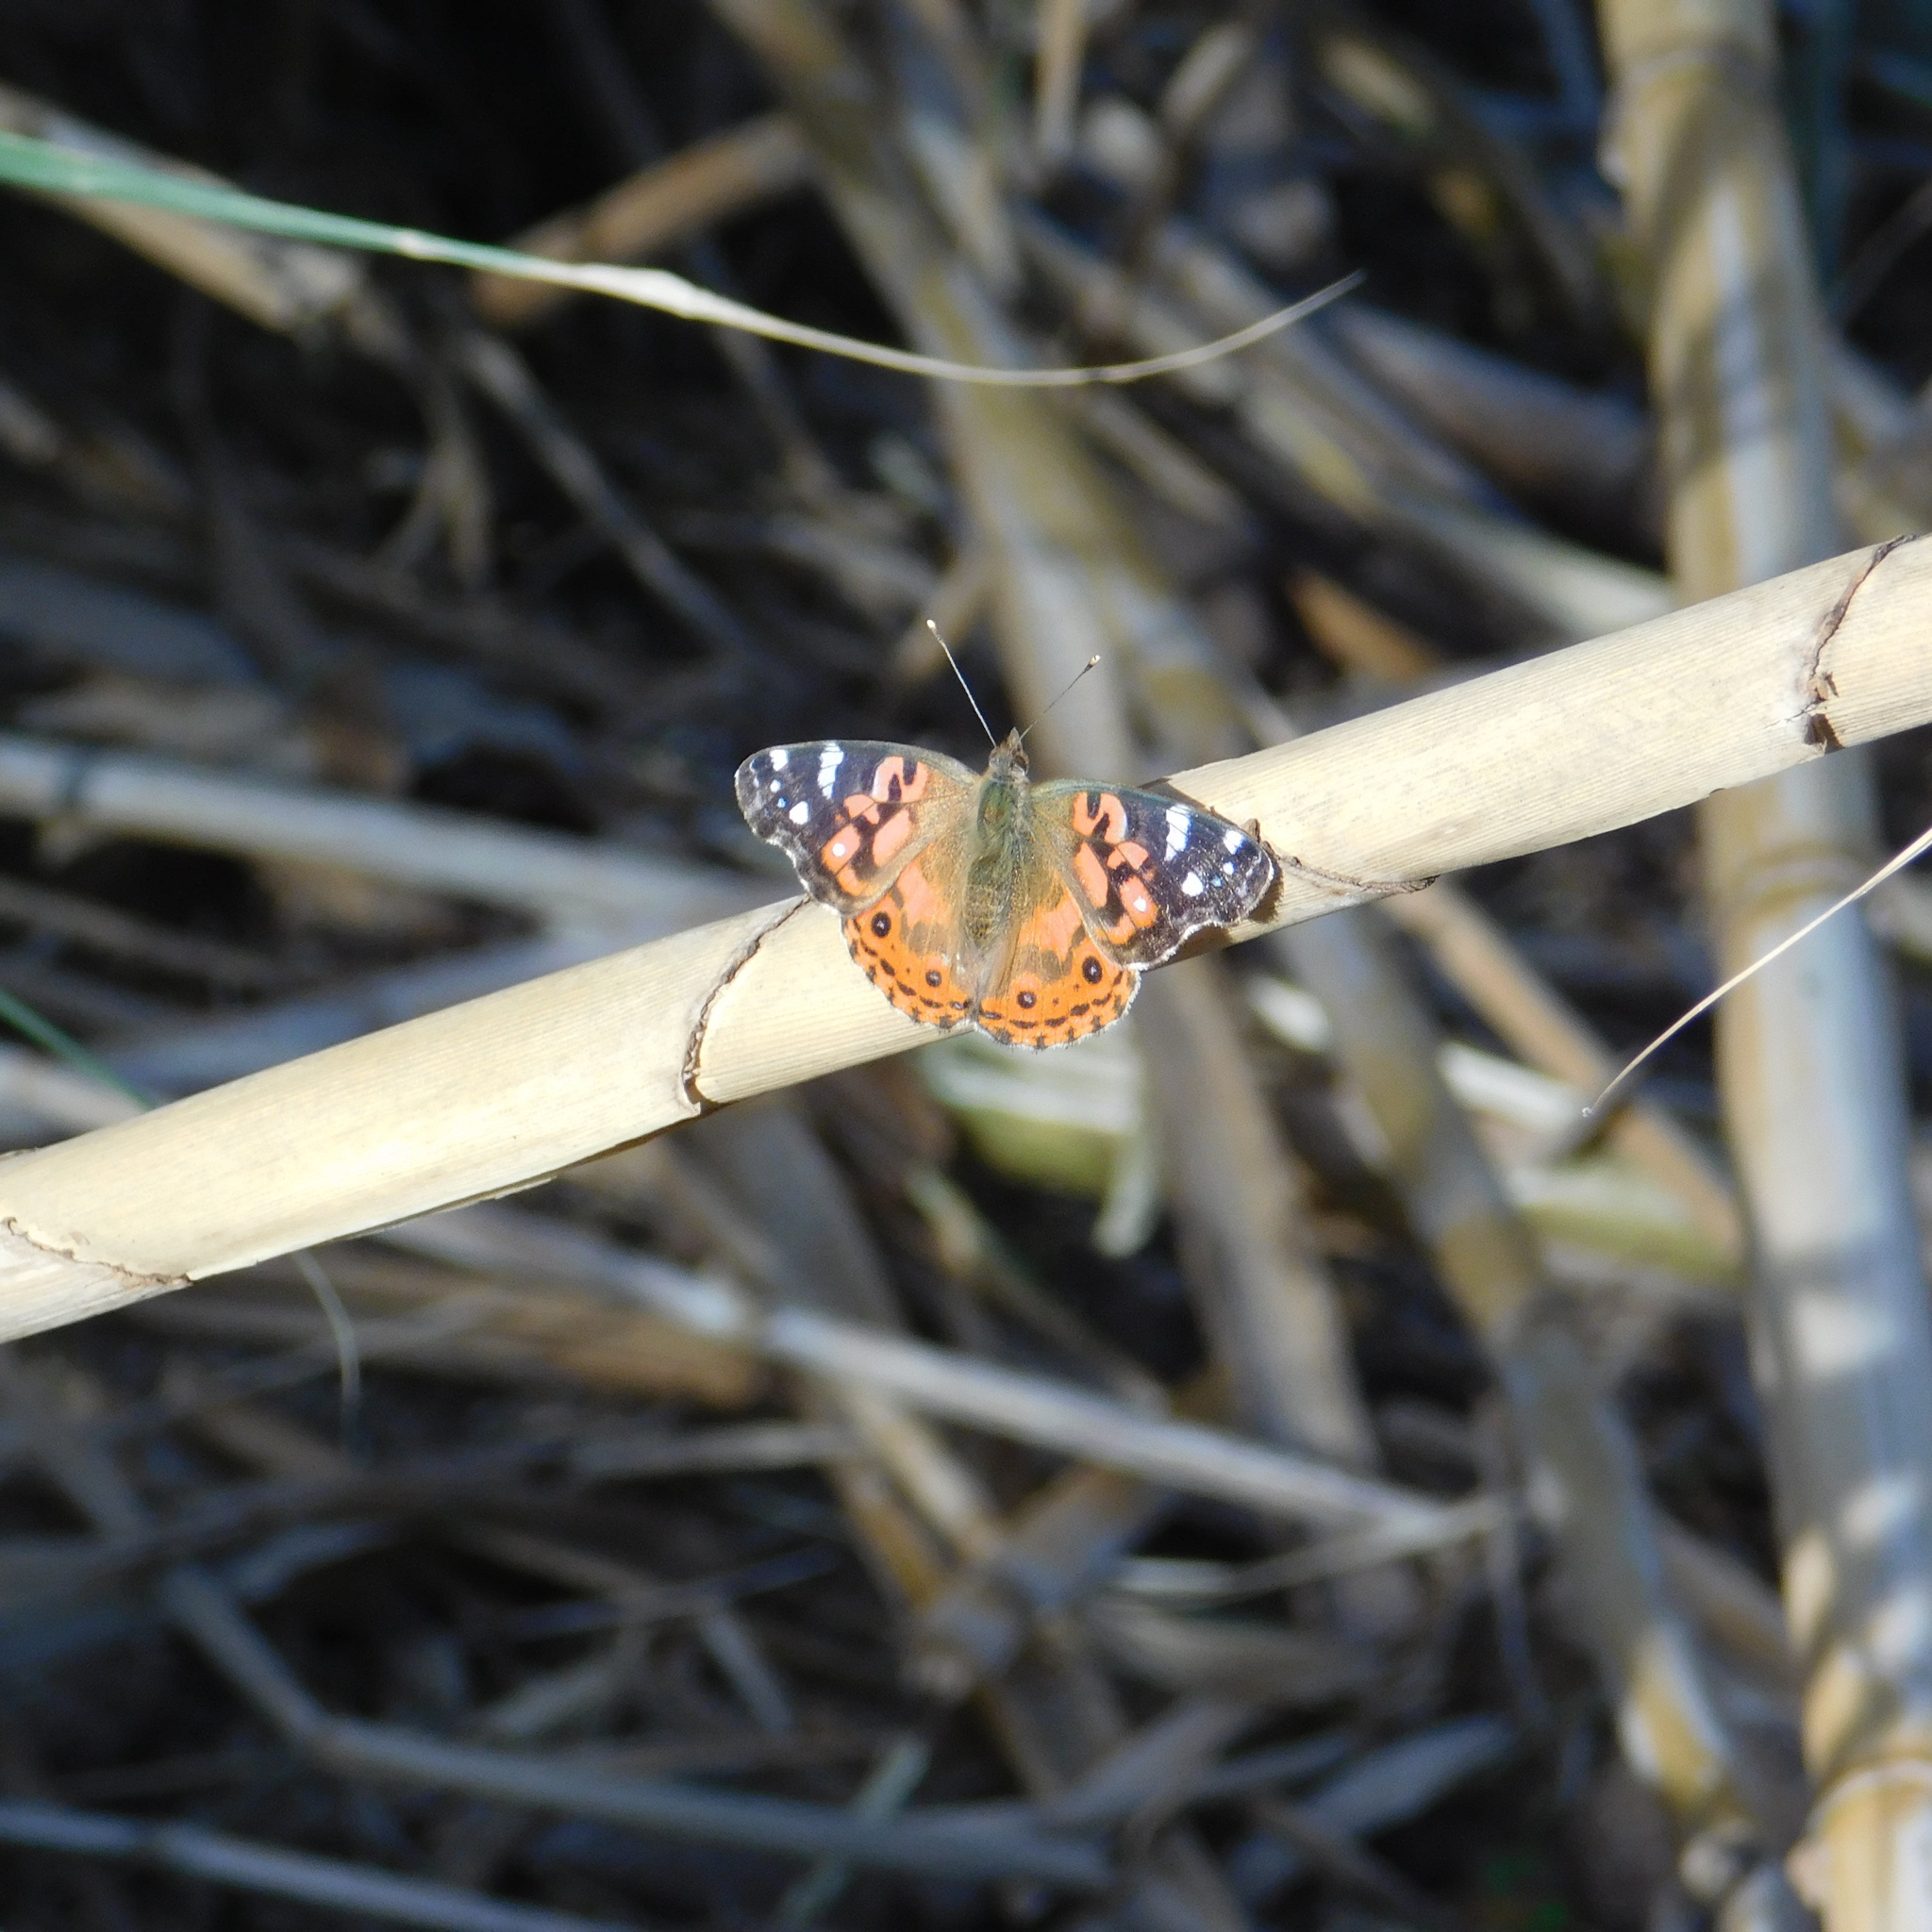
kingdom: Animalia
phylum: Arthropoda
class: Insecta
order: Lepidoptera
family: Nymphalidae
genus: Vanessa
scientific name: Vanessa braziliensis
